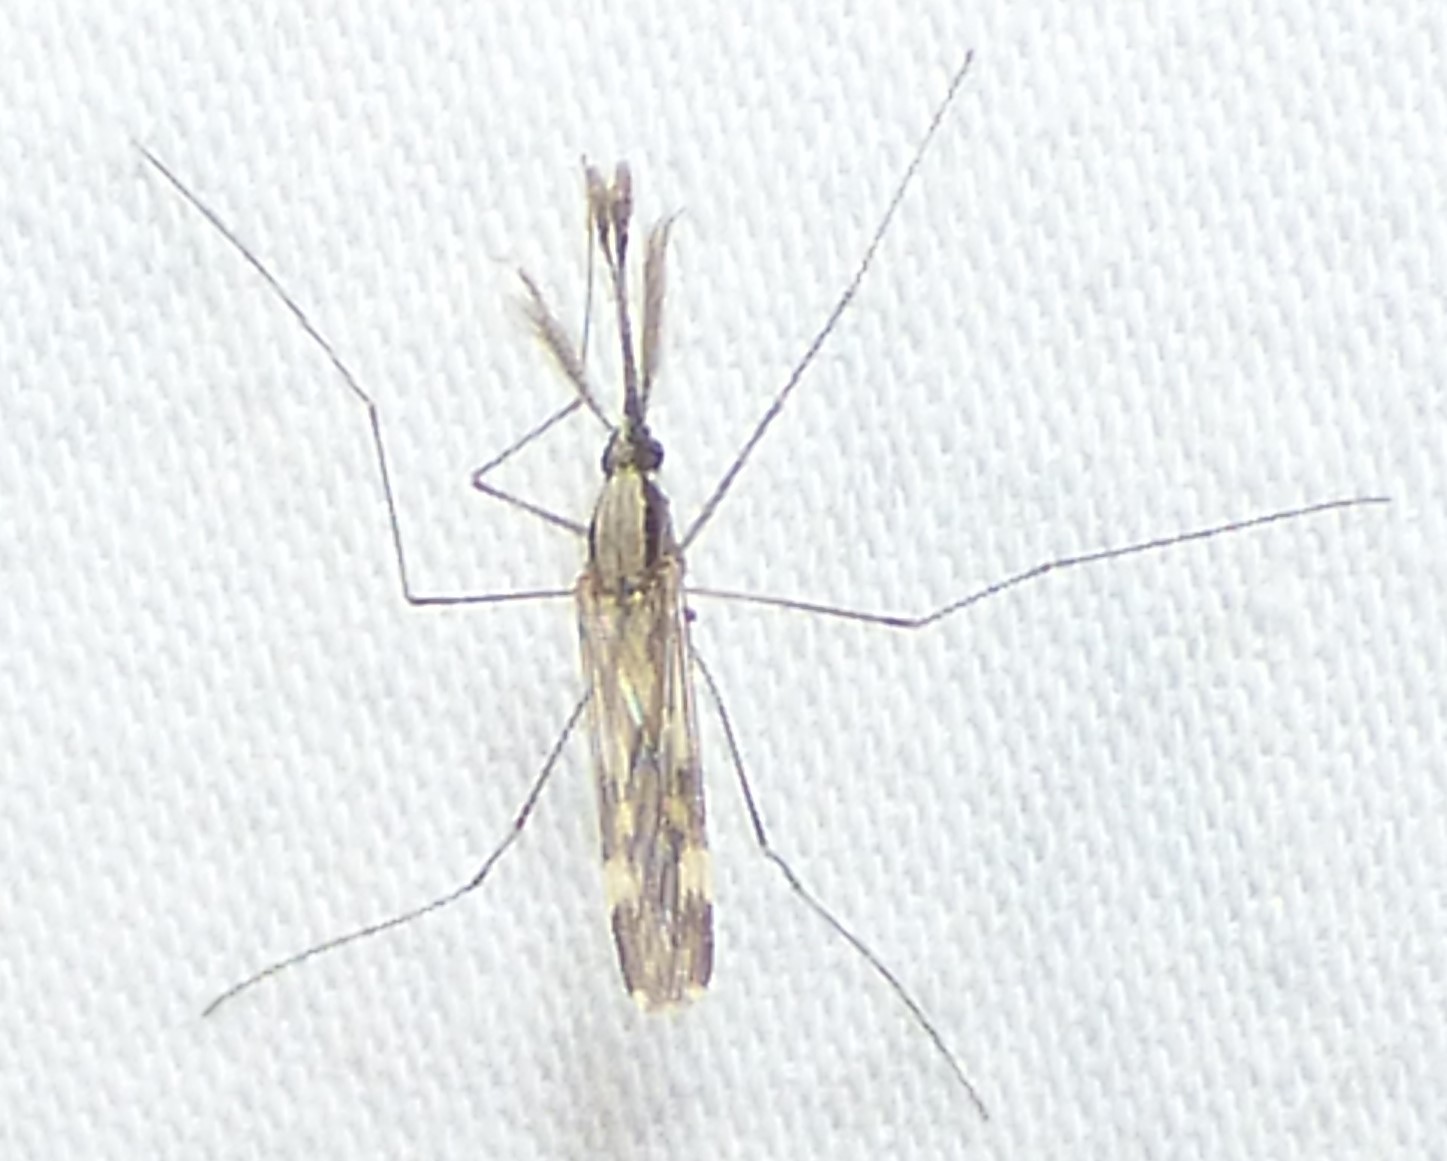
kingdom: Animalia
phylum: Arthropoda
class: Insecta
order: Diptera
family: Culicidae
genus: Anopheles
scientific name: Anopheles punctipennis
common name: Woodland malaria mosquito
